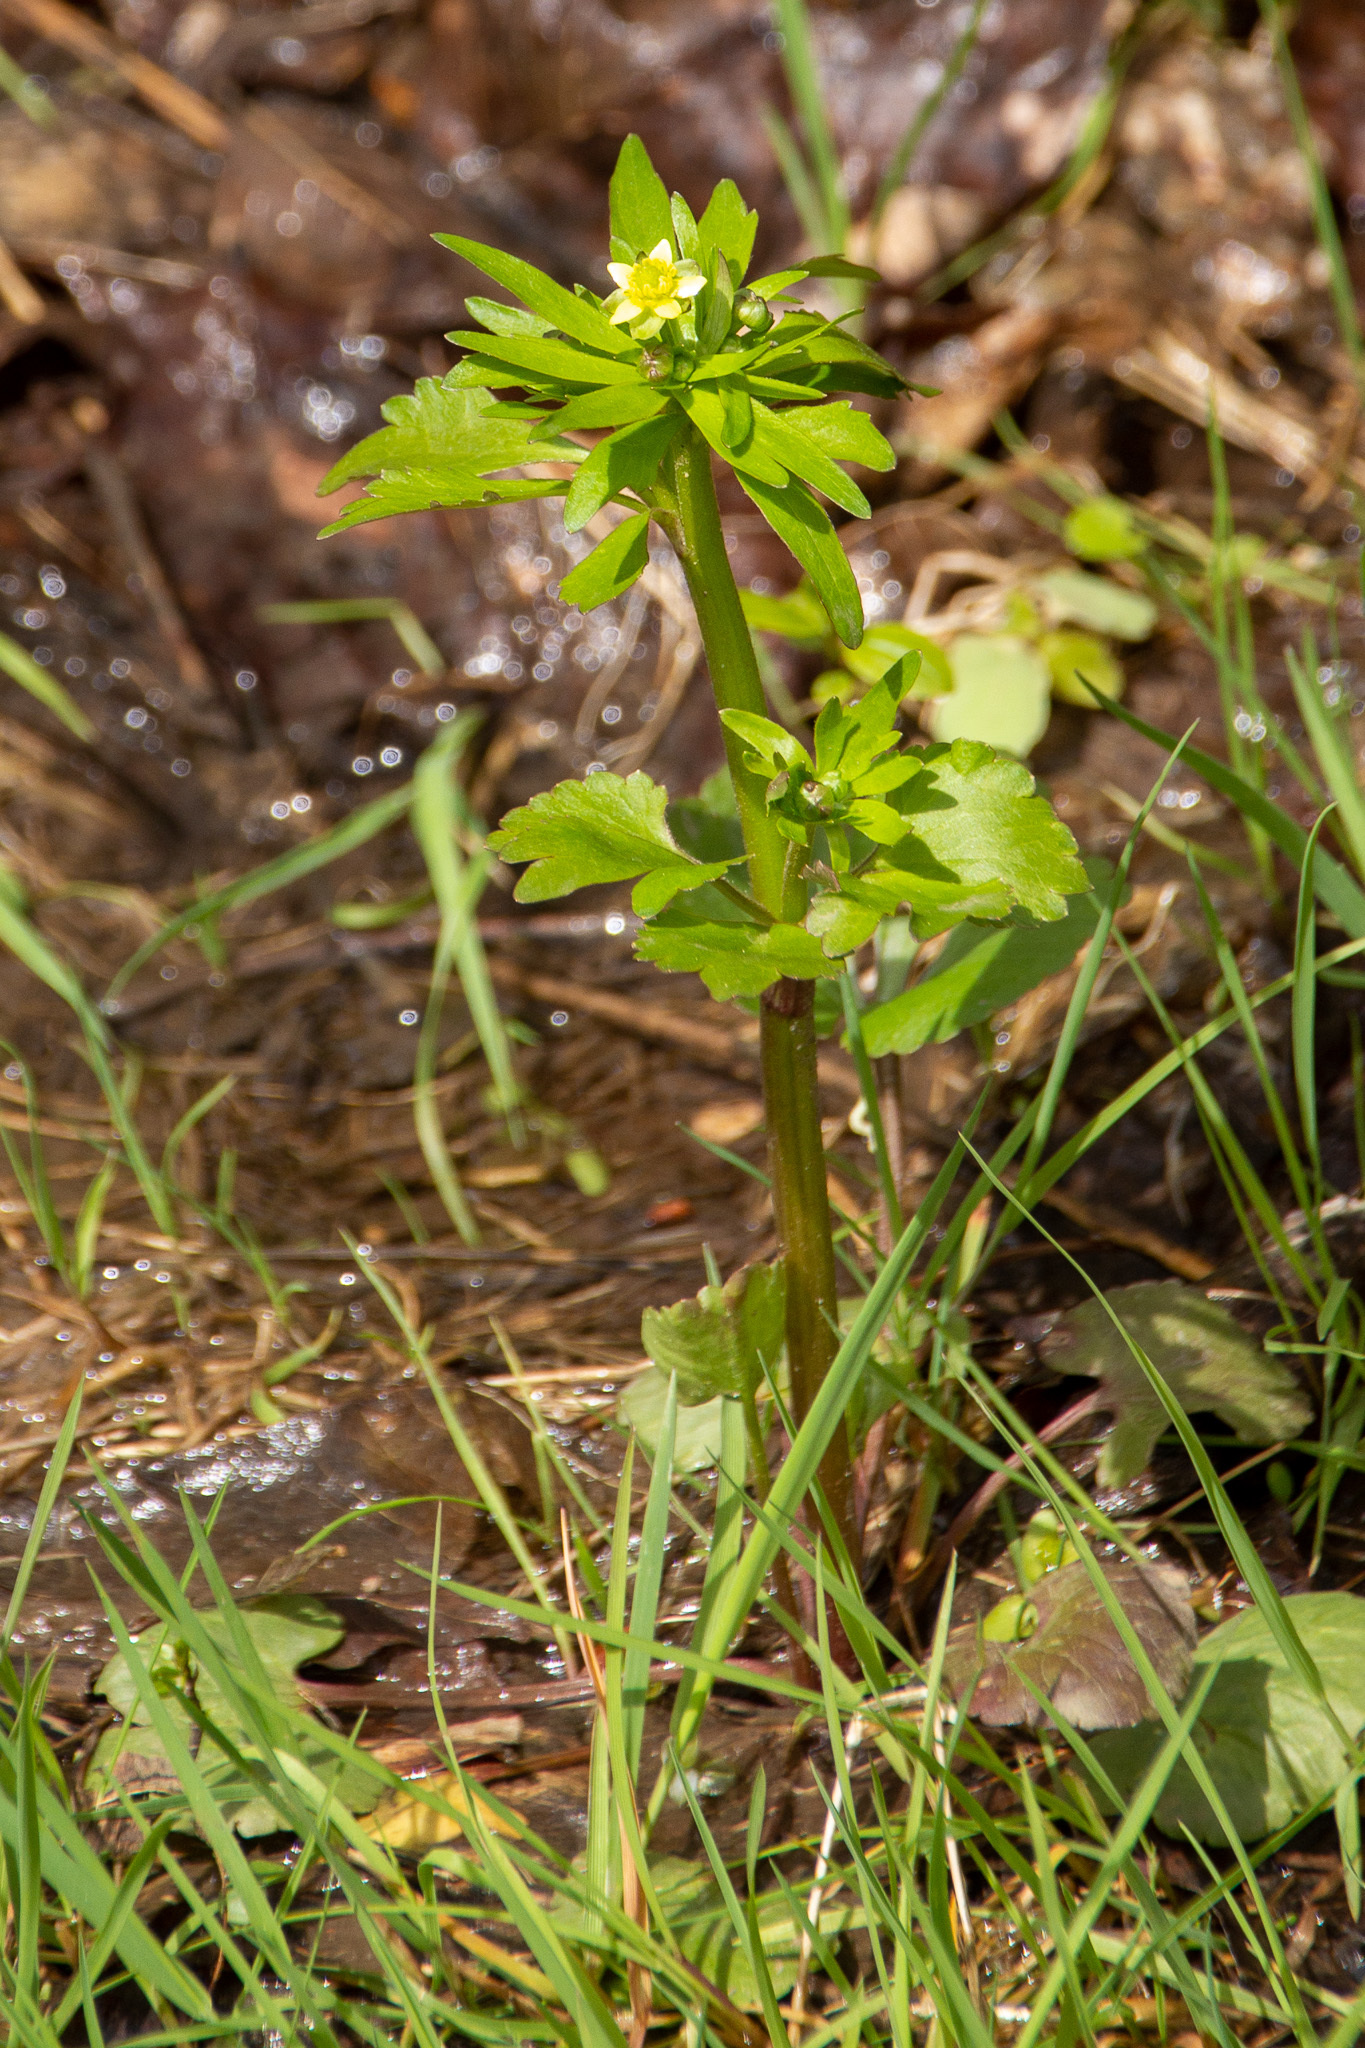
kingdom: Plantae
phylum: Tracheophyta
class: Magnoliopsida
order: Ranunculales
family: Ranunculaceae
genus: Ranunculus
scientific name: Ranunculus abortivus
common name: Early wood buttercup
